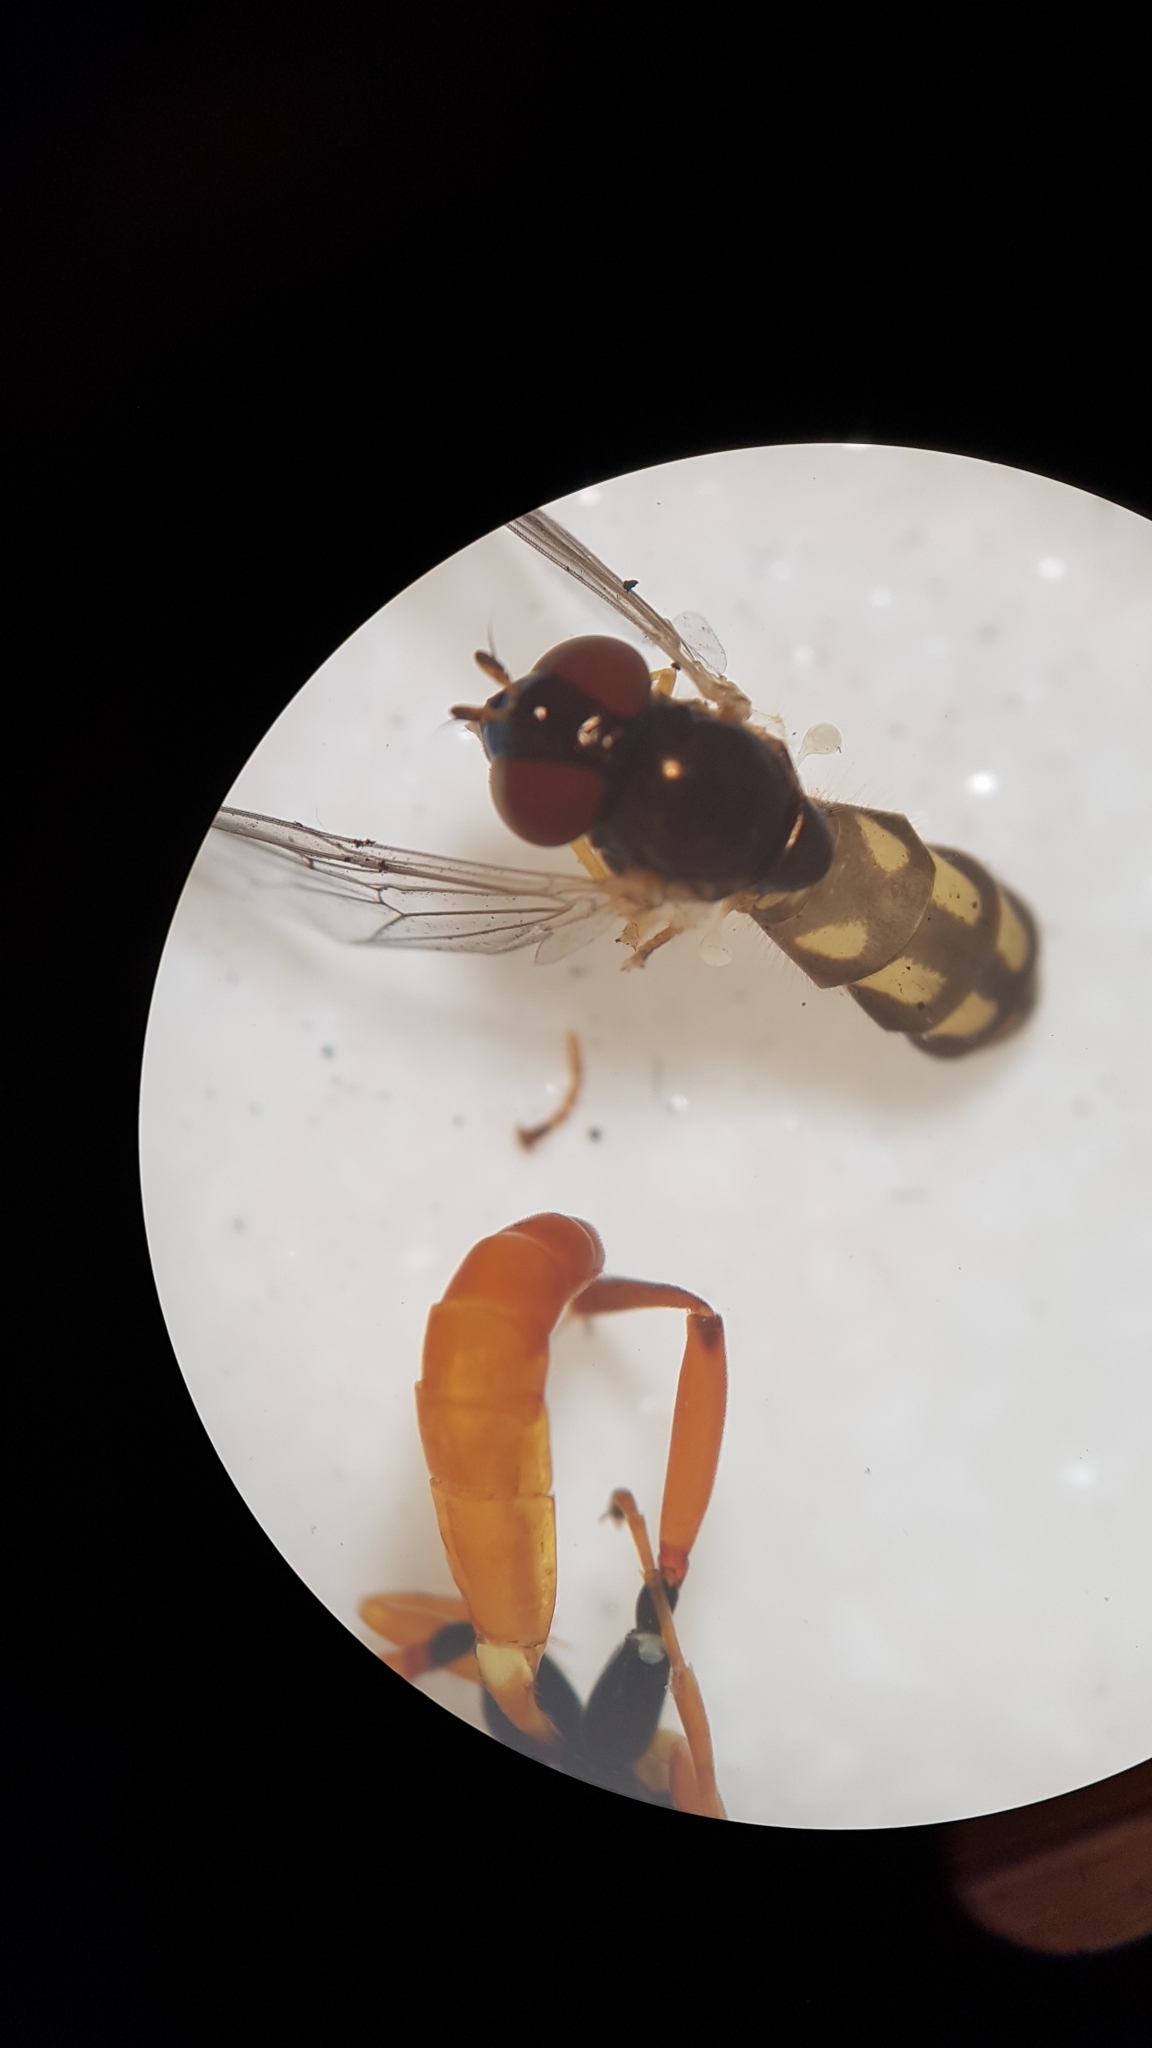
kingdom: Animalia
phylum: Arthropoda
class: Insecta
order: Diptera
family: Syrphidae
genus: Melanostoma
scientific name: Melanostoma fasciatum
